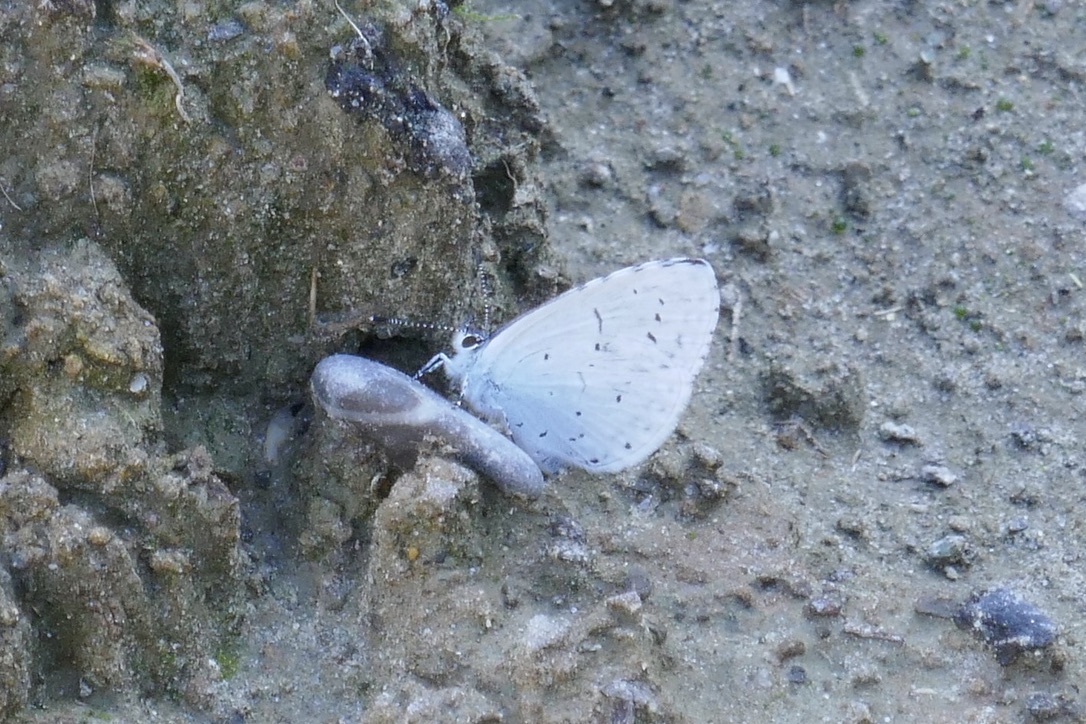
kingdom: Animalia
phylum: Arthropoda
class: Insecta
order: Lepidoptera
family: Lycaenidae
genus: Celastrina
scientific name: Celastrina argiolus
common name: Holly blue
